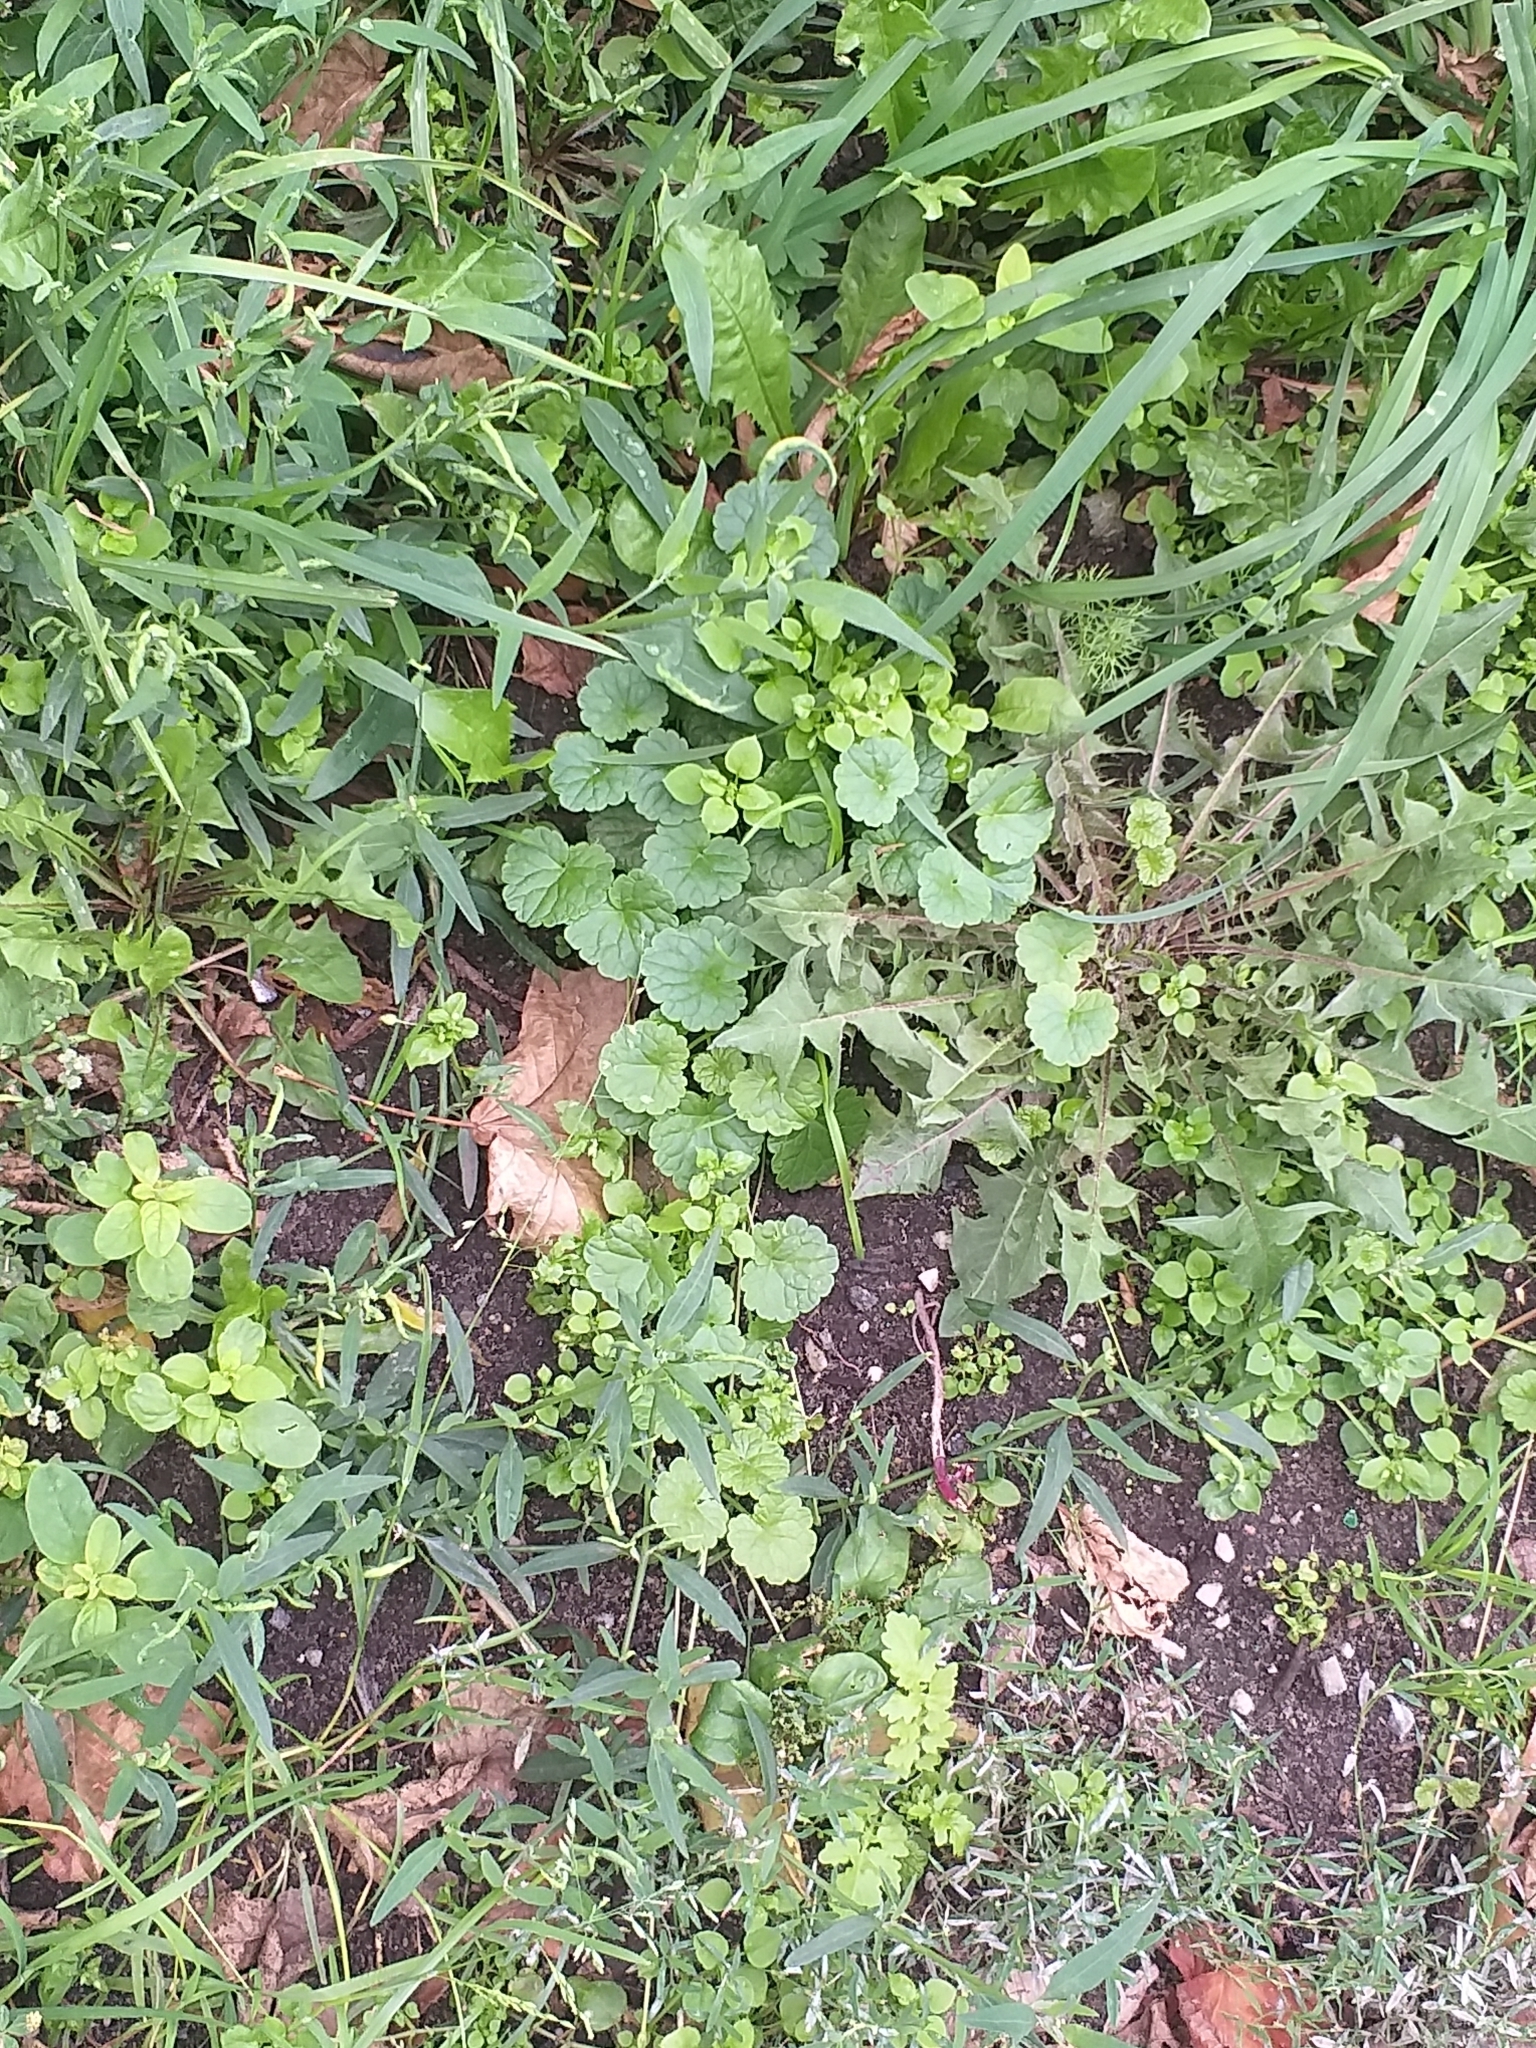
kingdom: Plantae
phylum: Tracheophyta
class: Magnoliopsida
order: Lamiales
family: Lamiaceae
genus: Glechoma
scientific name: Glechoma hederacea
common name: Ground ivy
